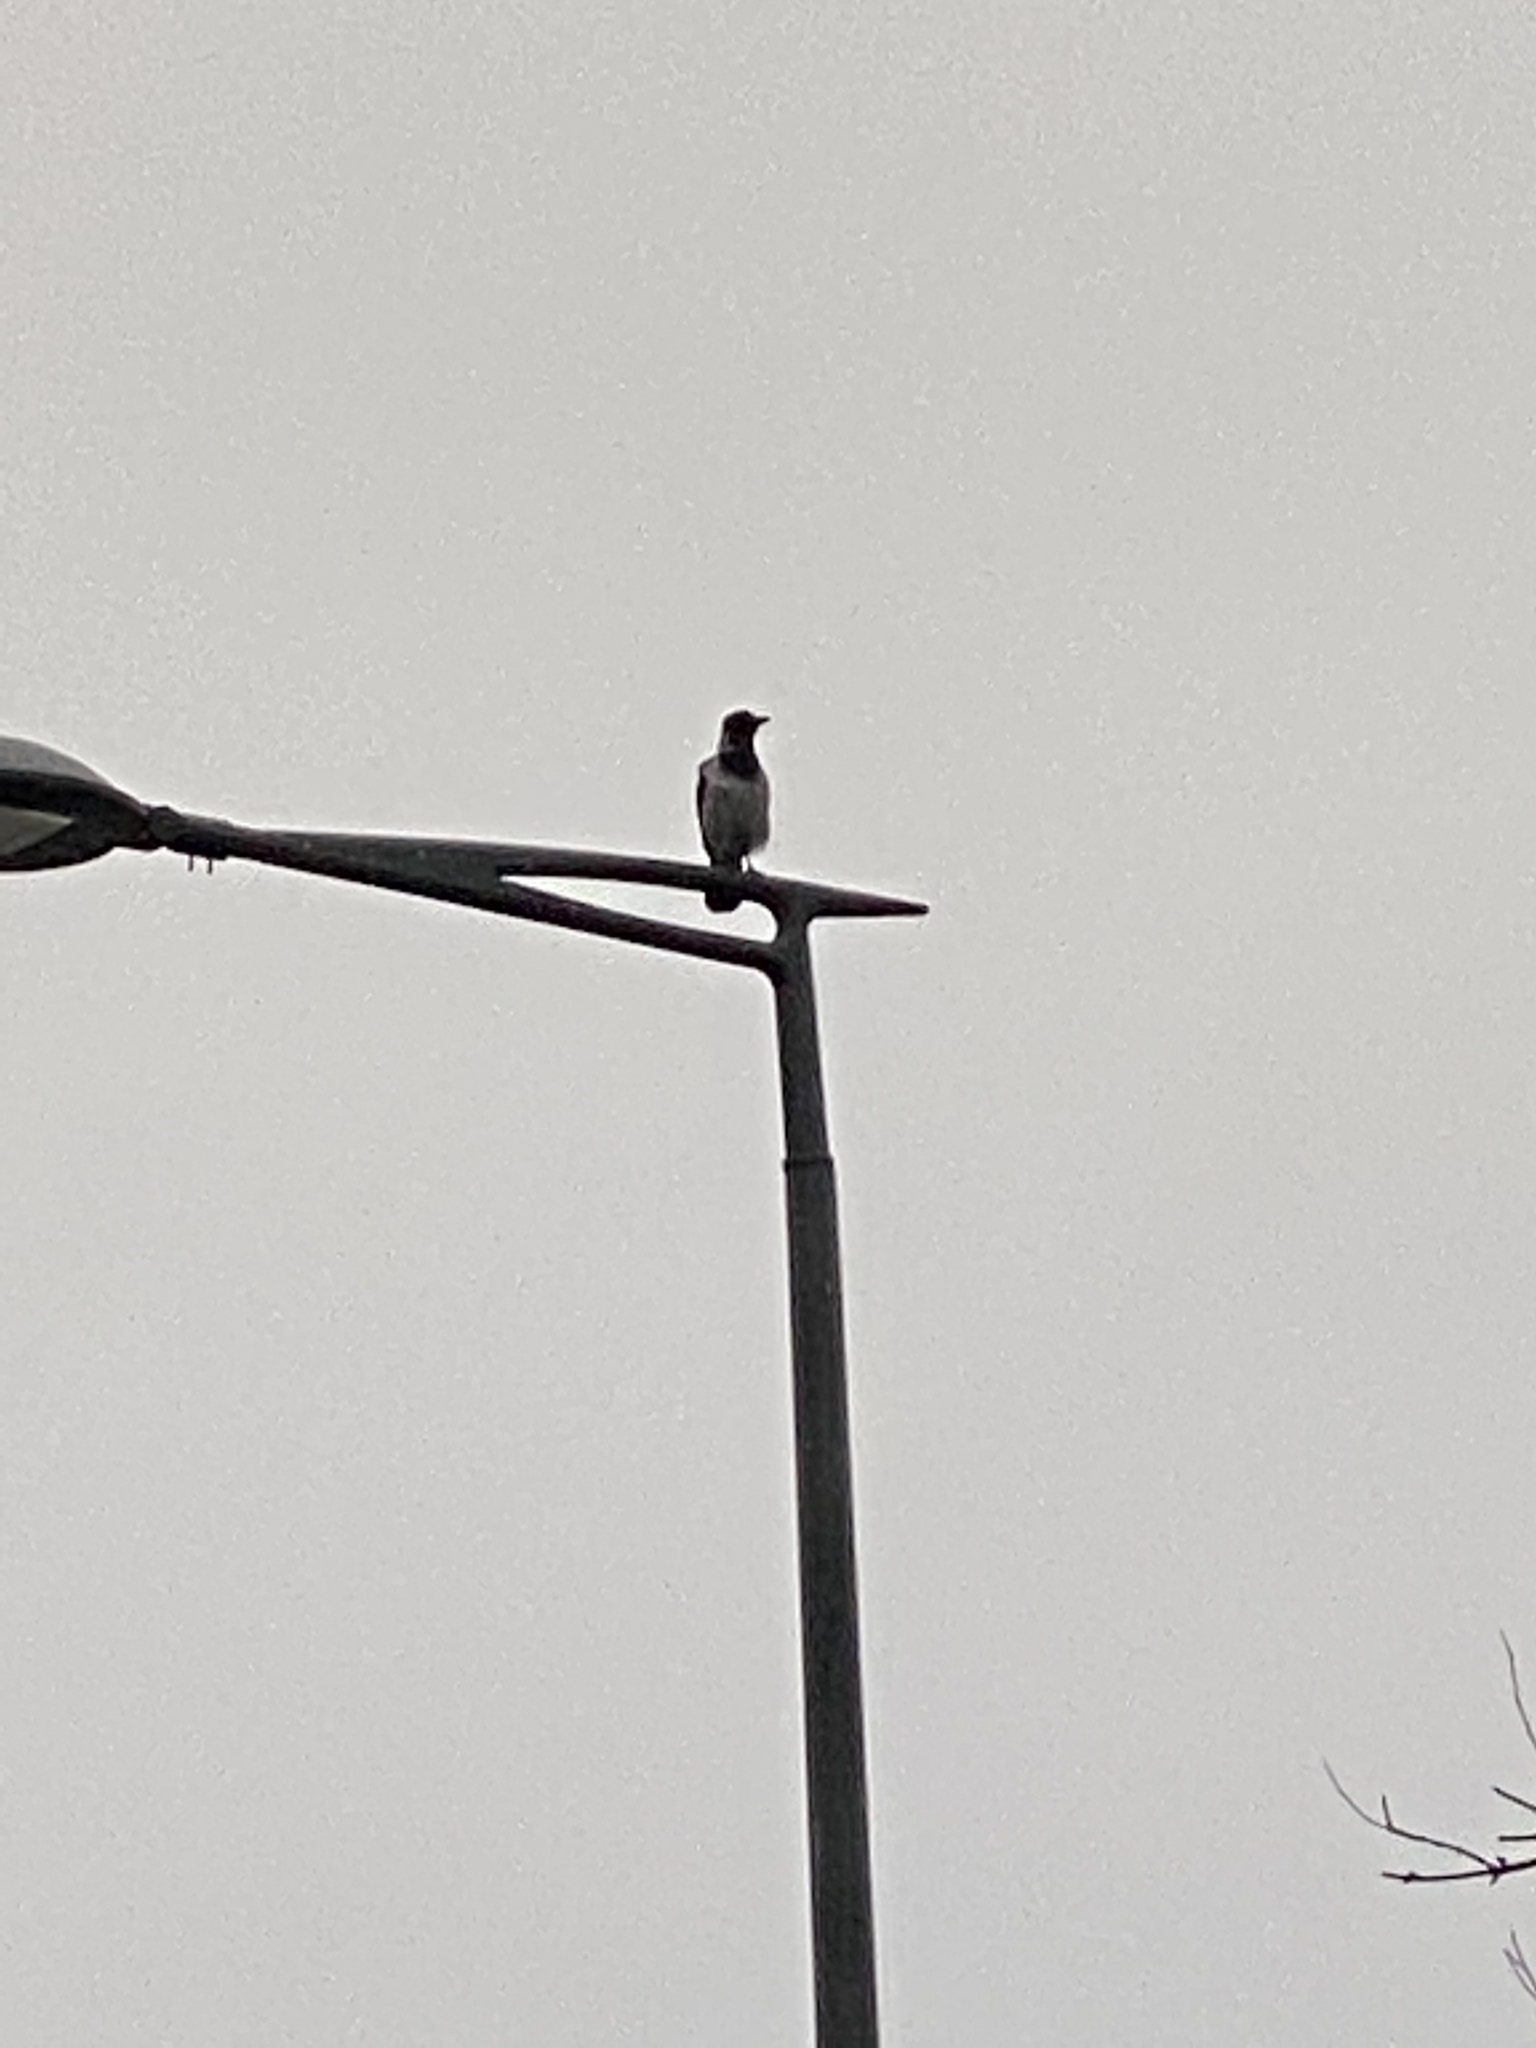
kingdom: Animalia
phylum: Chordata
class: Aves
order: Passeriformes
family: Corvidae
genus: Corvus
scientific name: Corvus cornix
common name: Hooded crow
